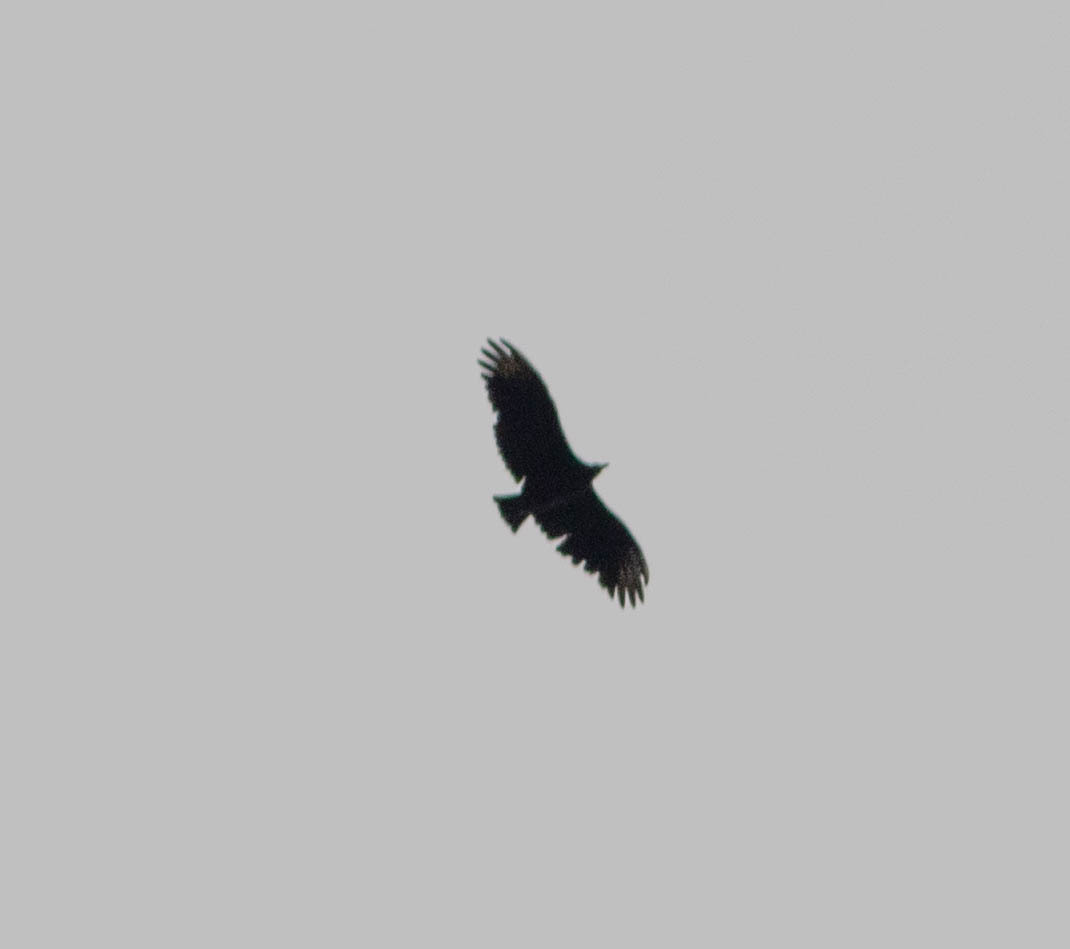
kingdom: Animalia
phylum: Chordata
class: Aves
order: Accipitriformes
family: Cathartidae
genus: Coragyps
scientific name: Coragyps atratus
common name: Black vulture
